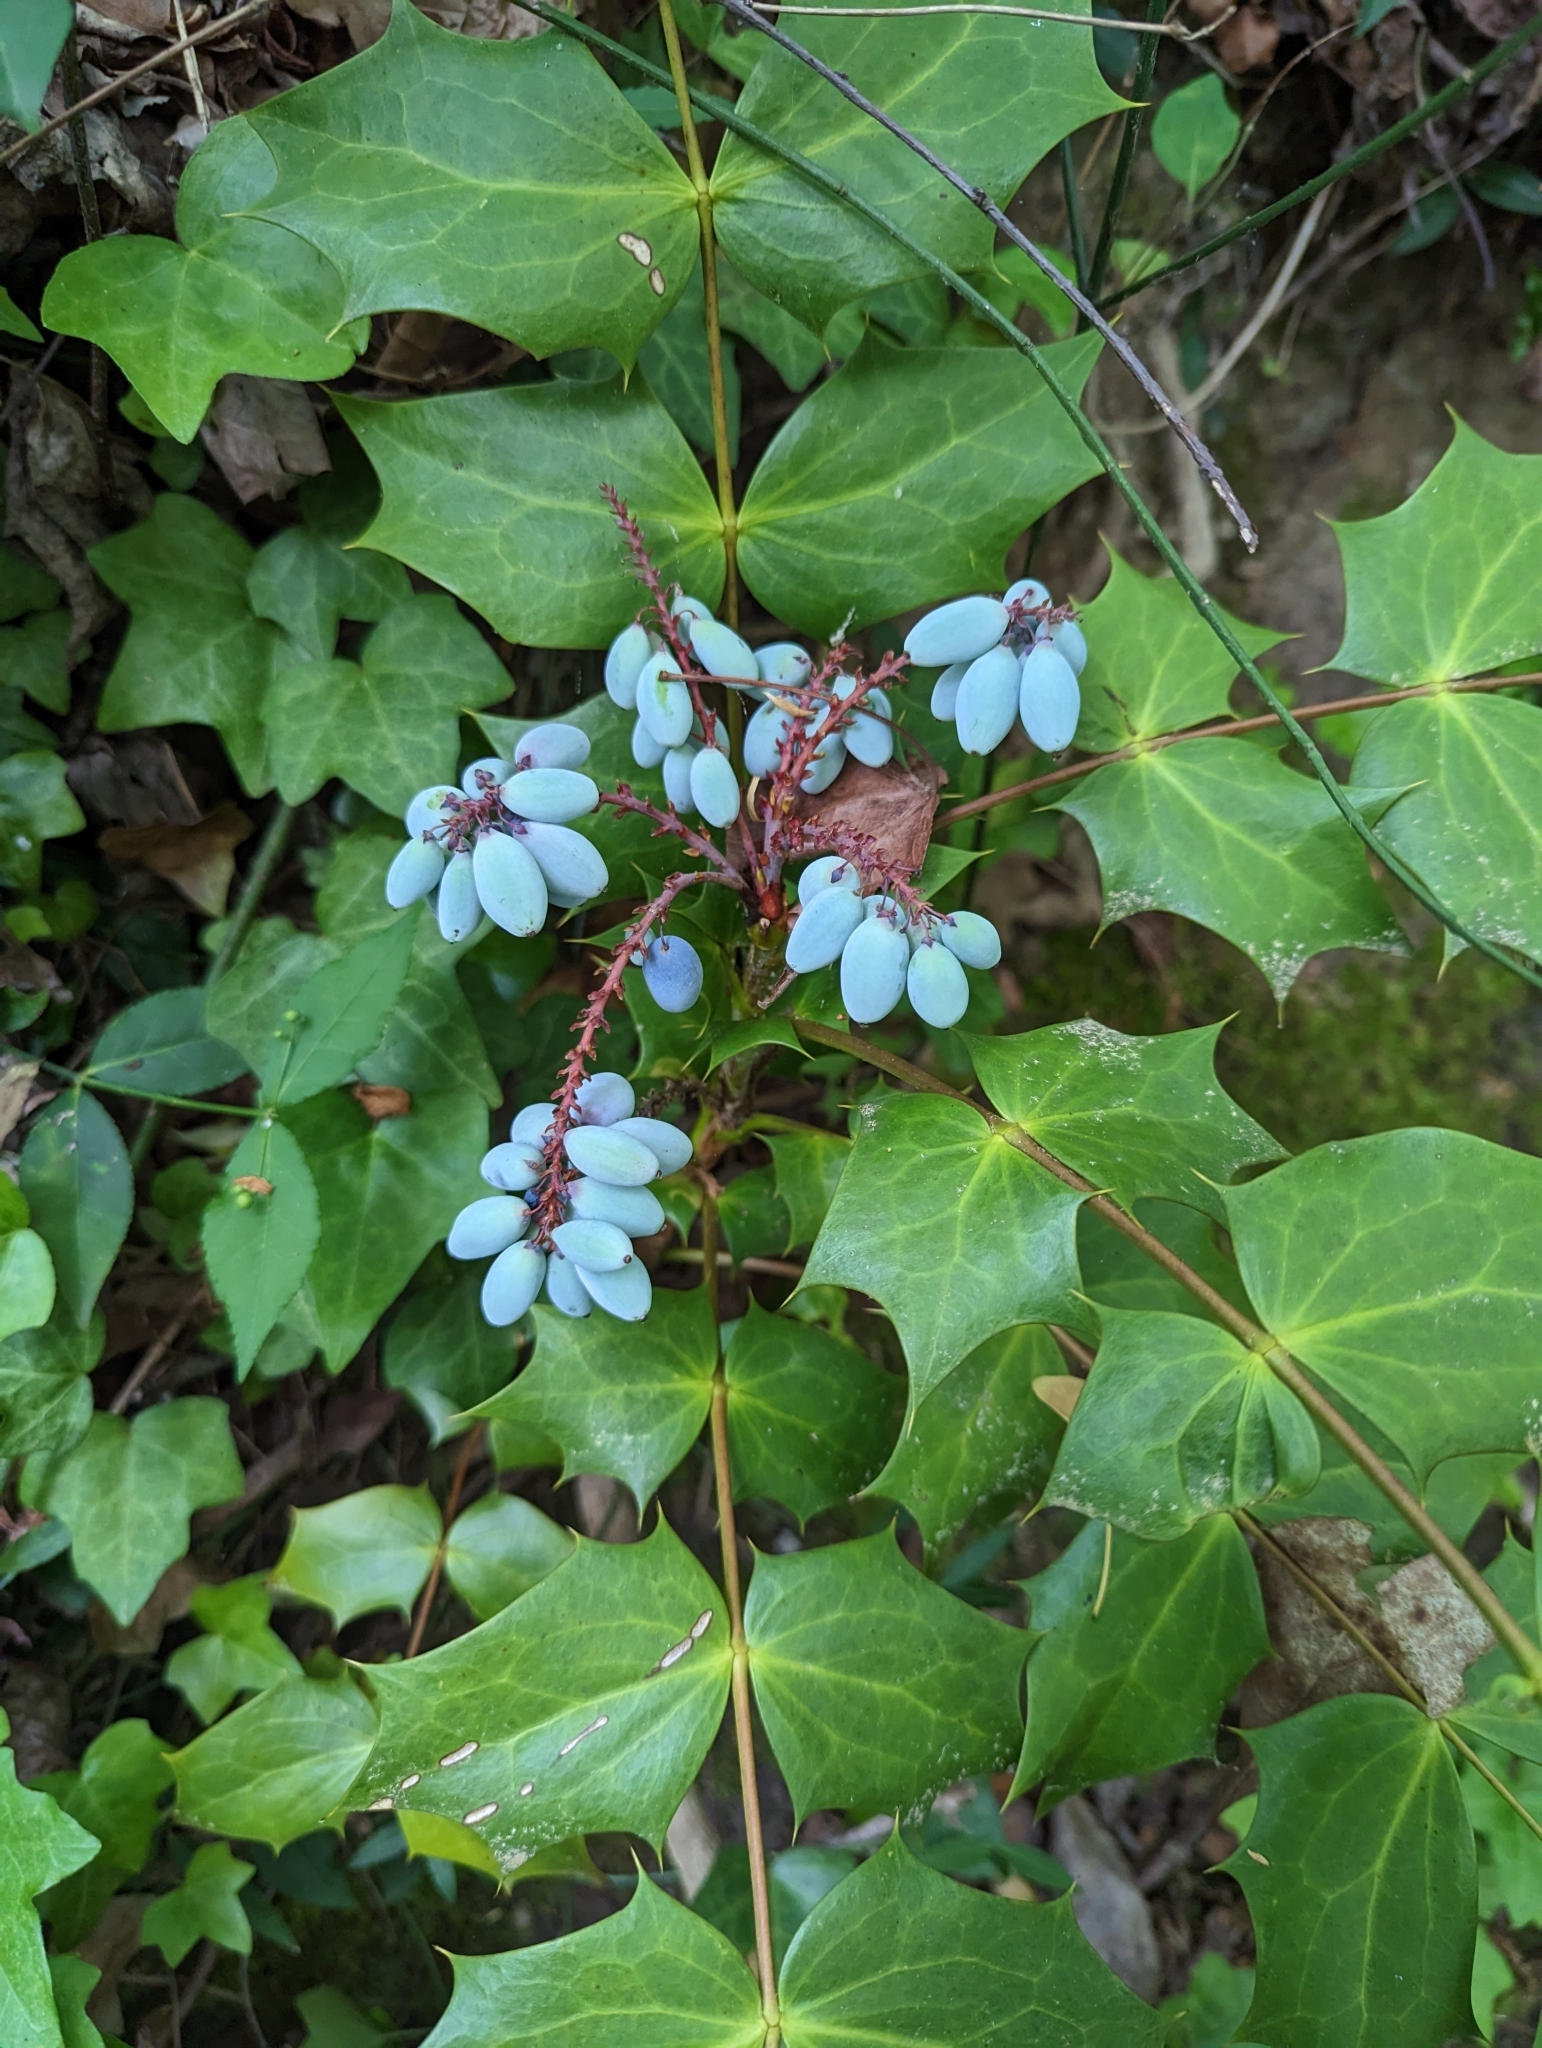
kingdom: Plantae
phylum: Tracheophyta
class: Magnoliopsida
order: Ranunculales
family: Berberidaceae
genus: Mahonia
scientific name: Mahonia bealei
